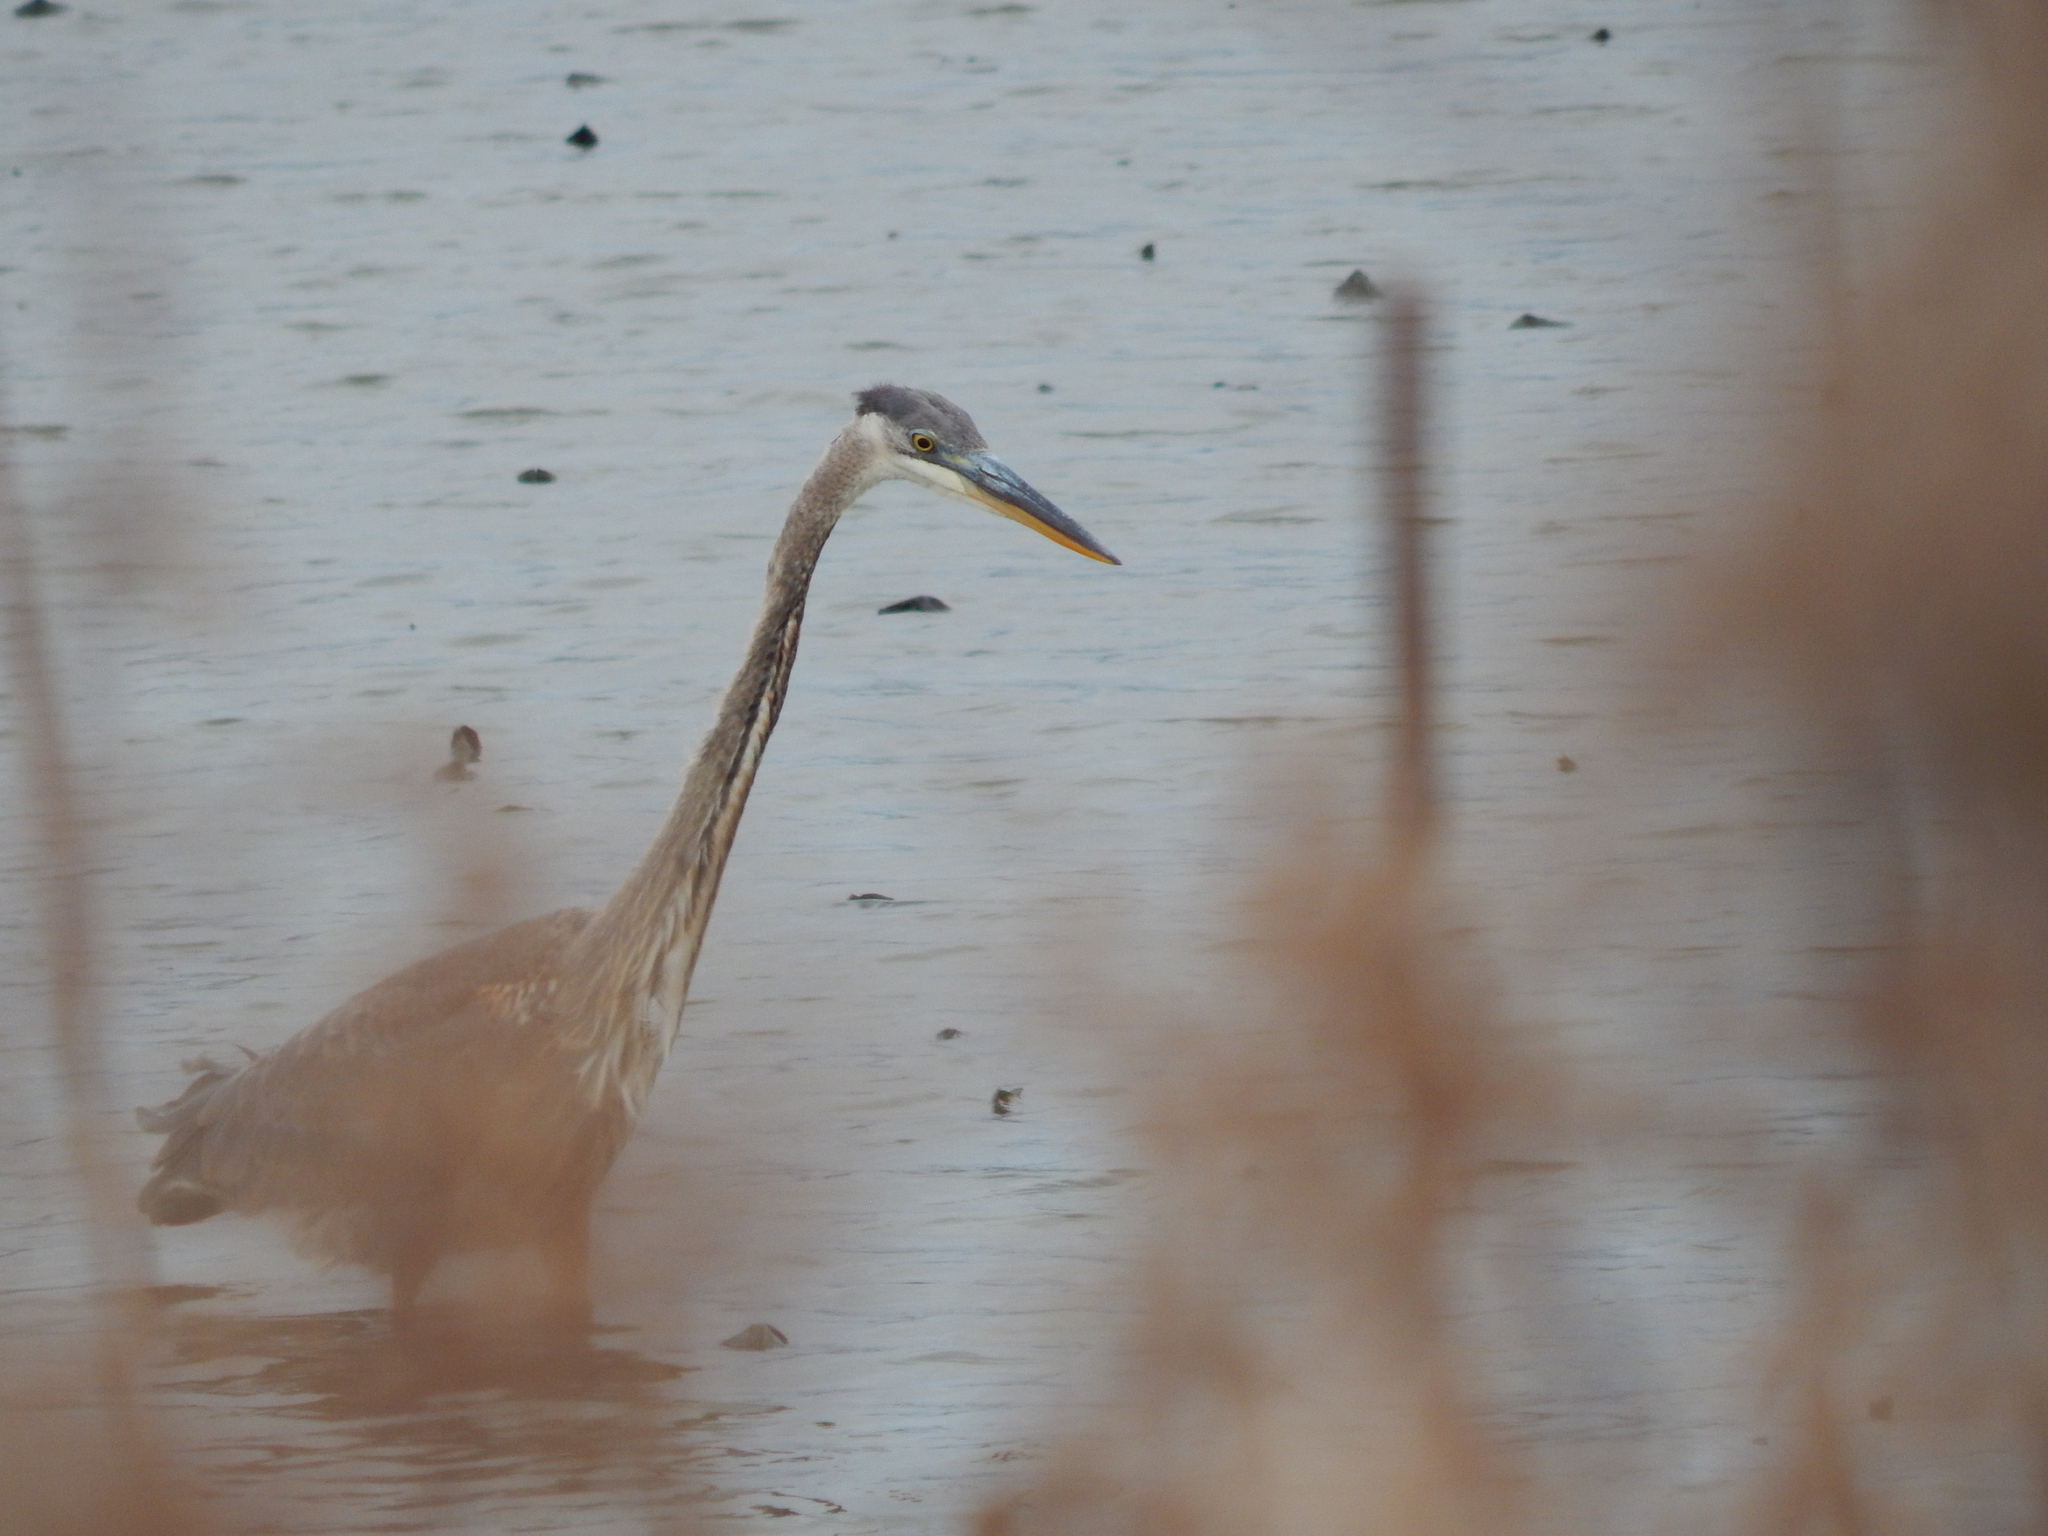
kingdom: Animalia
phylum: Chordata
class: Aves
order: Pelecaniformes
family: Ardeidae
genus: Ardea
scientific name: Ardea herodias
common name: Great blue heron
